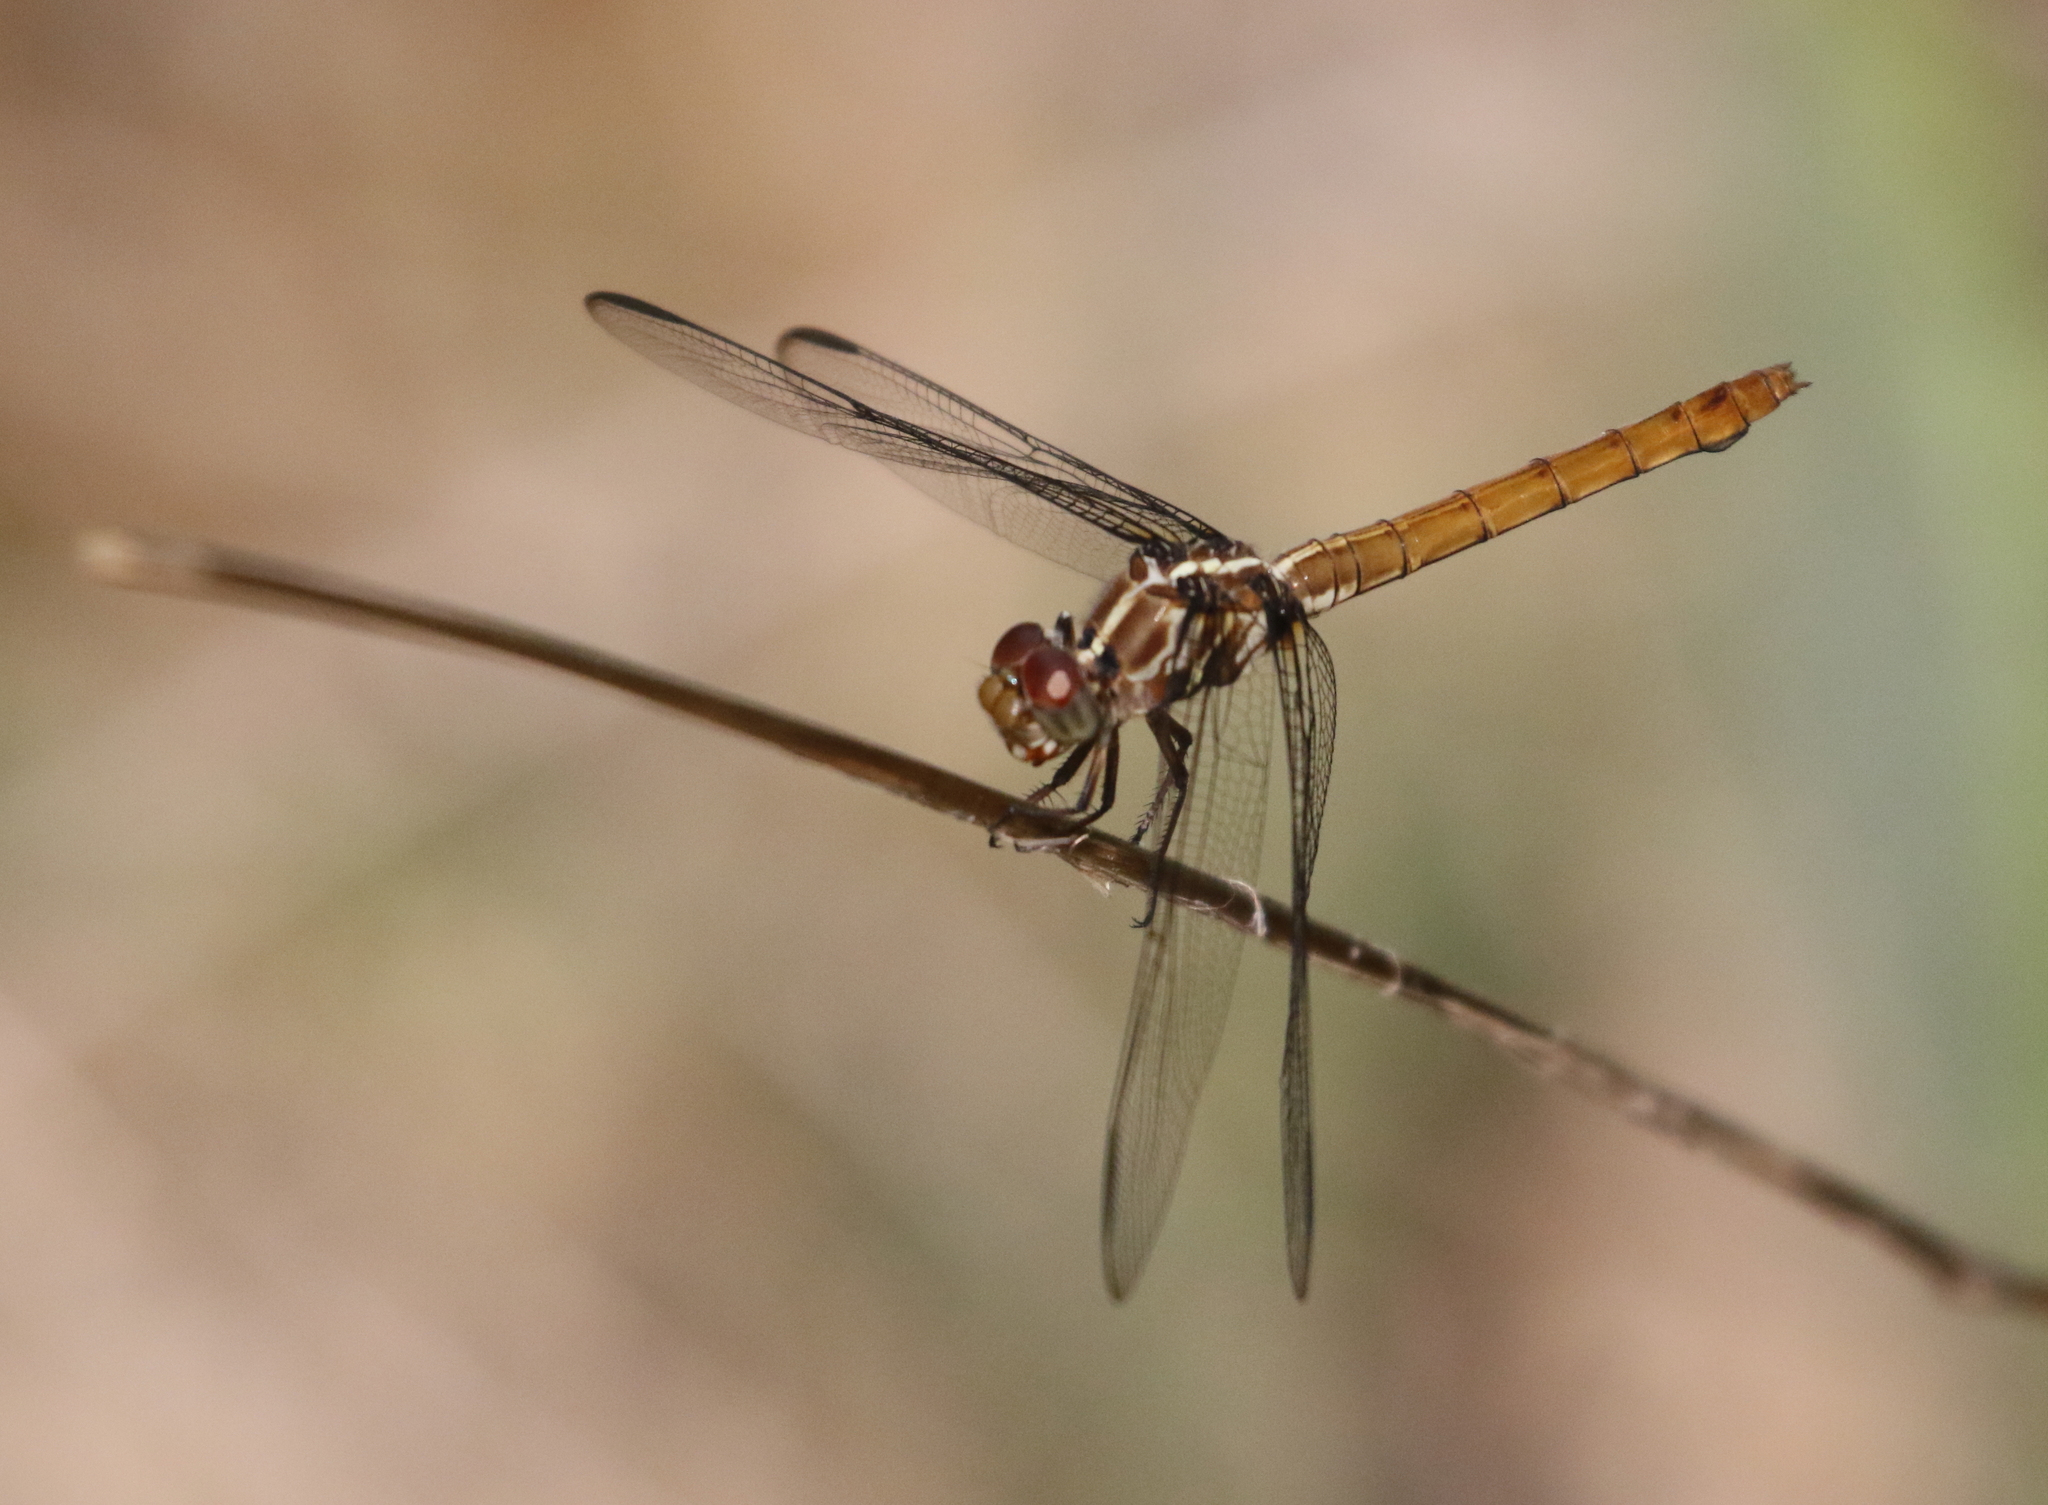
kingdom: Animalia
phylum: Arthropoda
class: Insecta
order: Odonata
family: Libellulidae
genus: Orthemis
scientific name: Orthemis ferruginea
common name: Roseate skimmer
